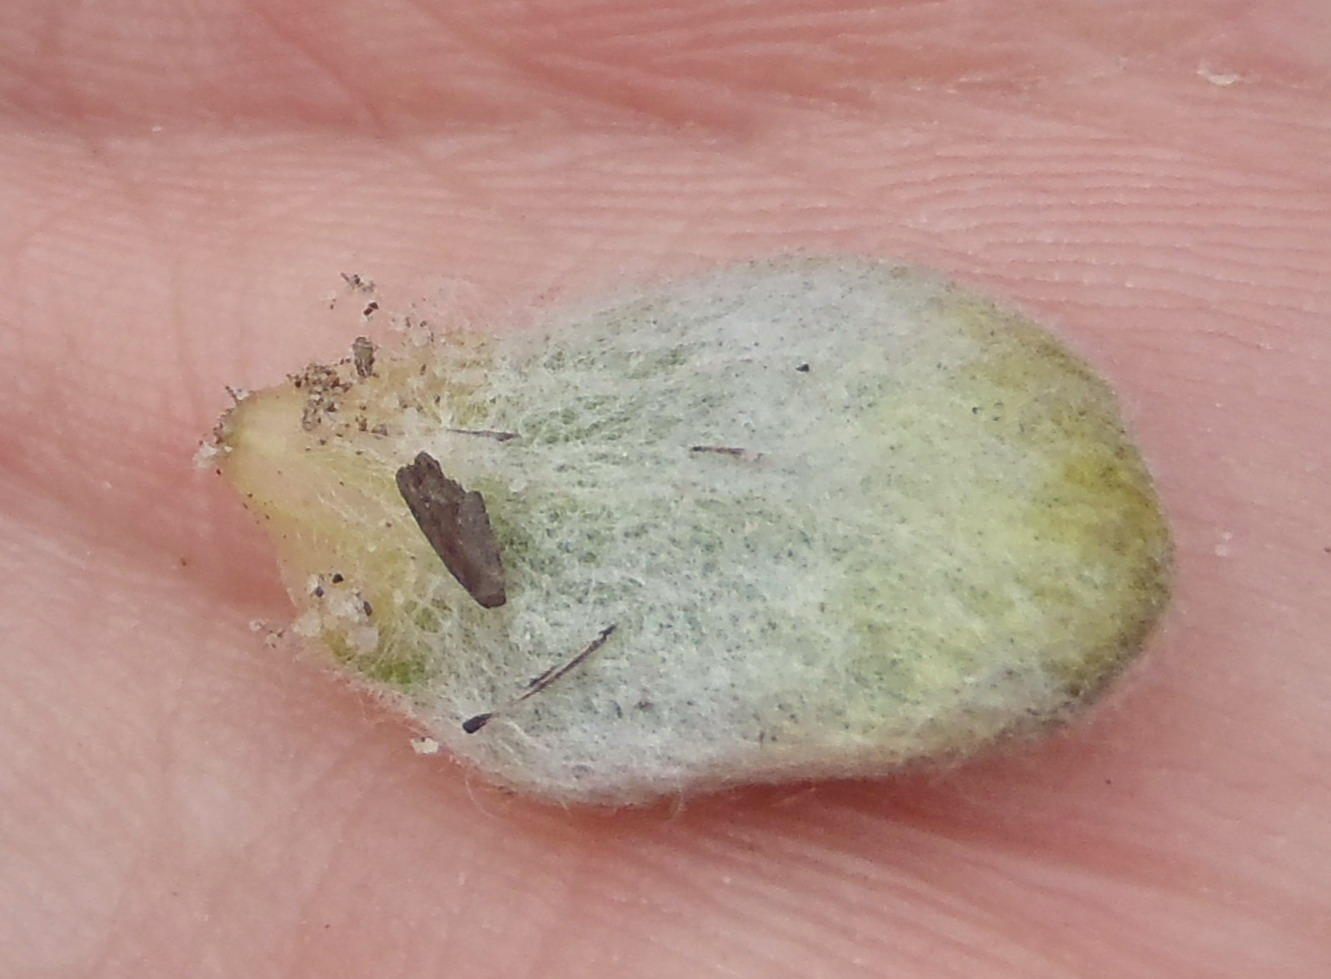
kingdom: Plantae
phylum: Tracheophyta
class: Magnoliopsida
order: Asterales
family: Asteraceae
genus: Helichrysum
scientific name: Helichrysum rotundifolium
